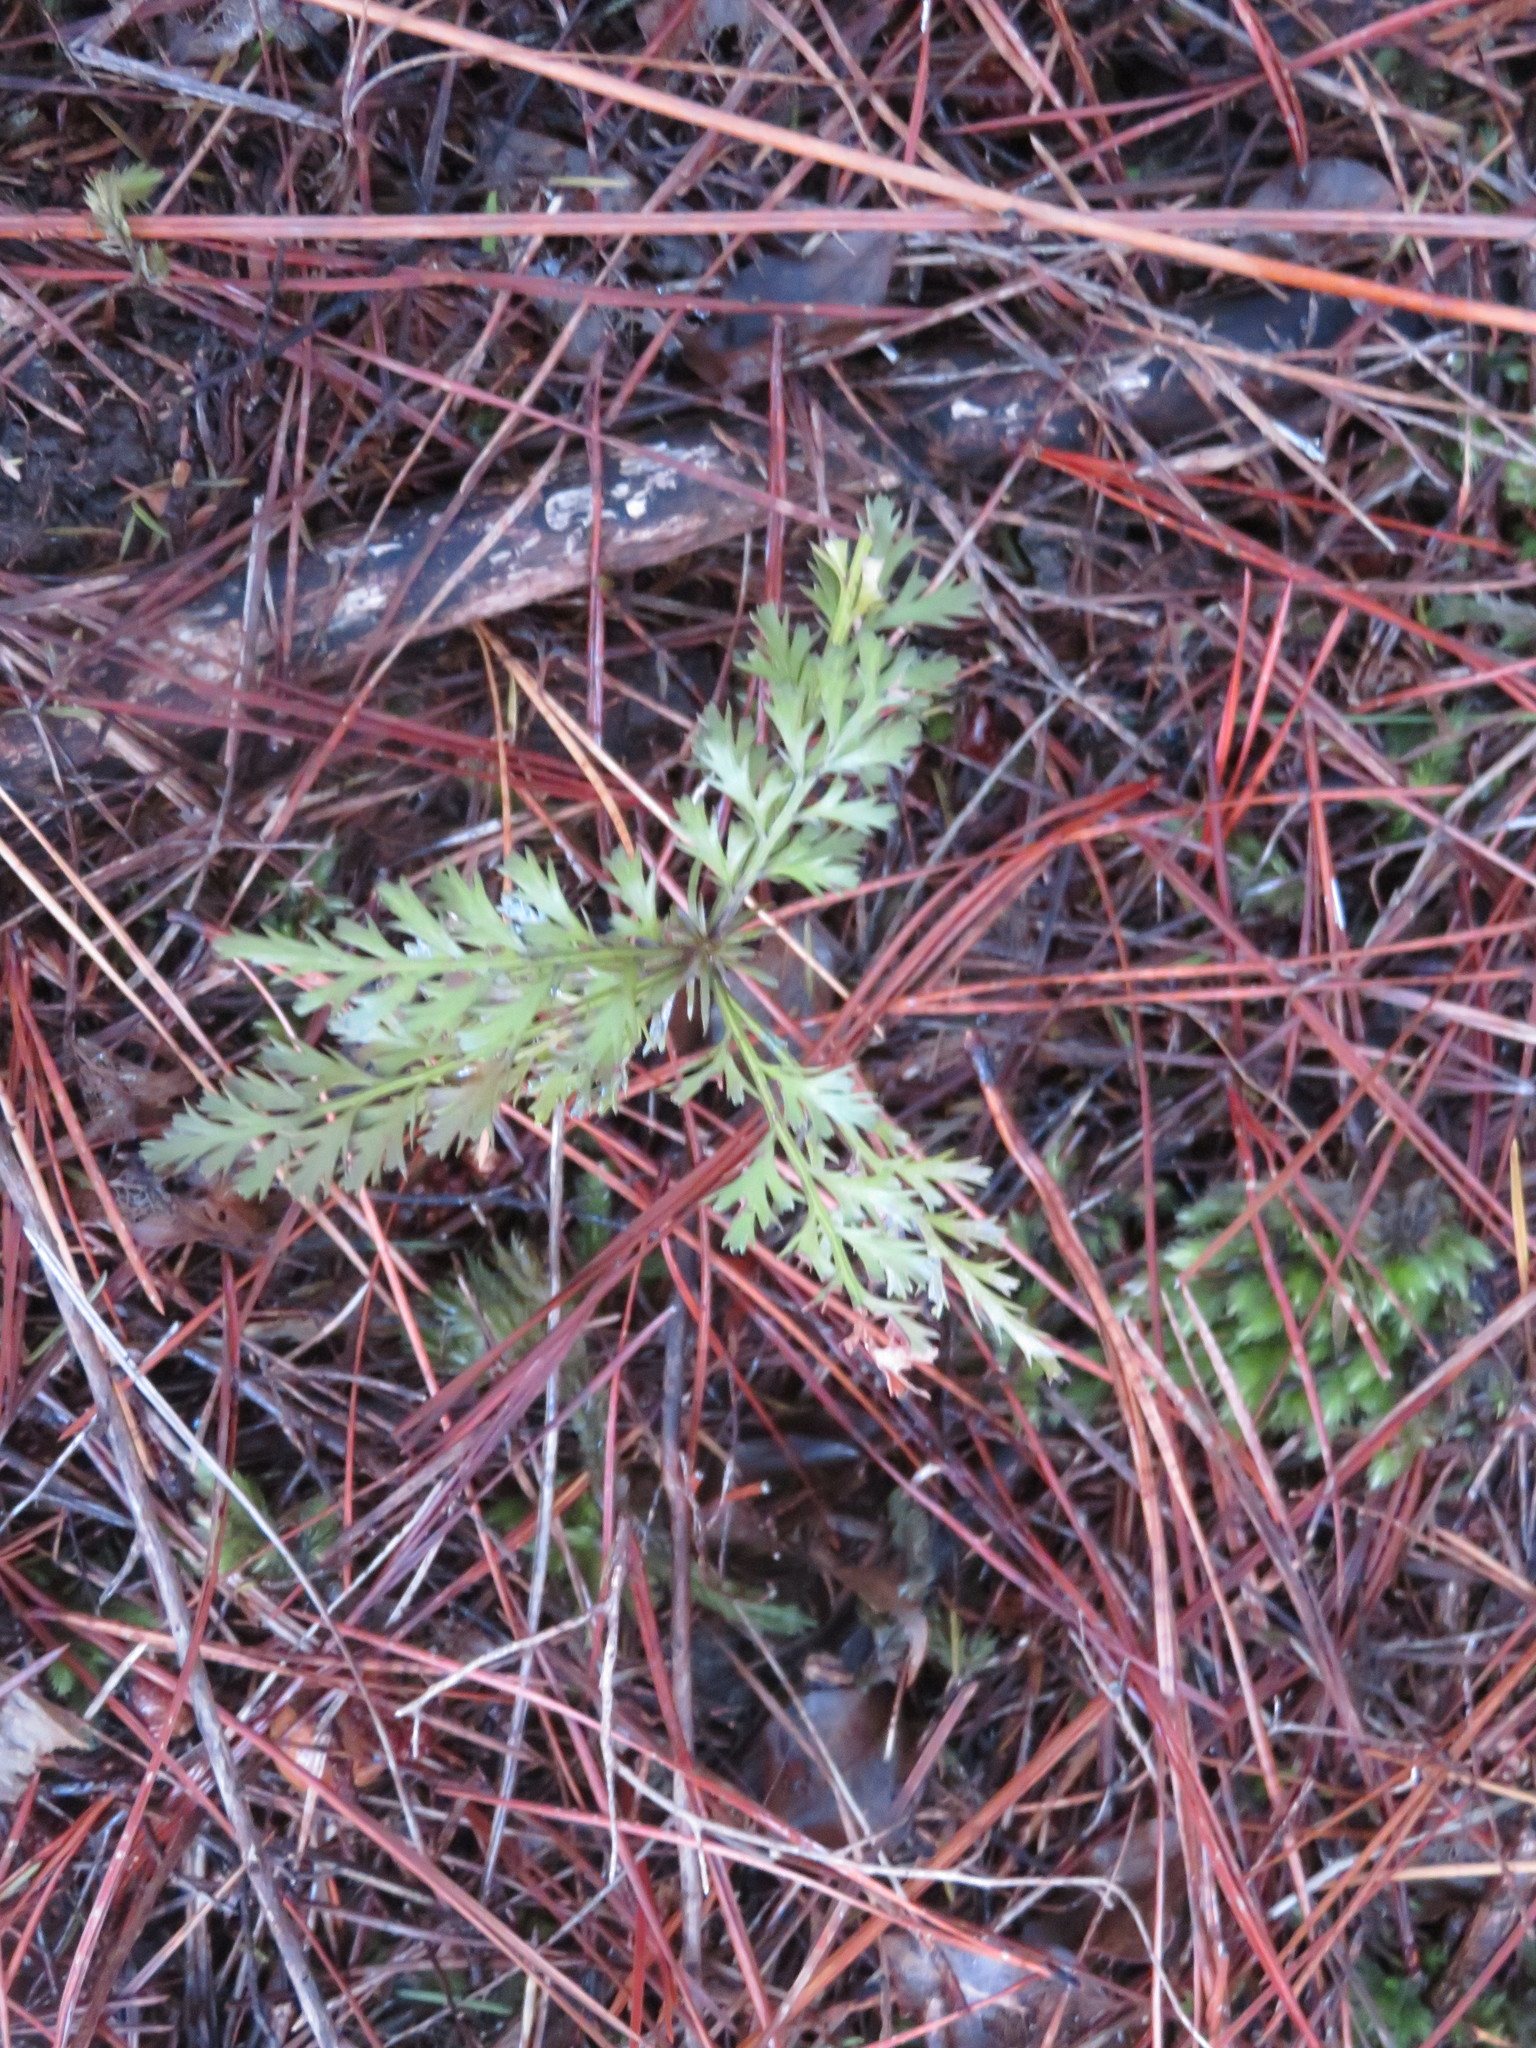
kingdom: Plantae
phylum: Tracheophyta
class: Pinopsida
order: Pinales
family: Phyllocladaceae
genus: Phyllocladus
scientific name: Phyllocladus trichomanoides
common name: Celery pine
